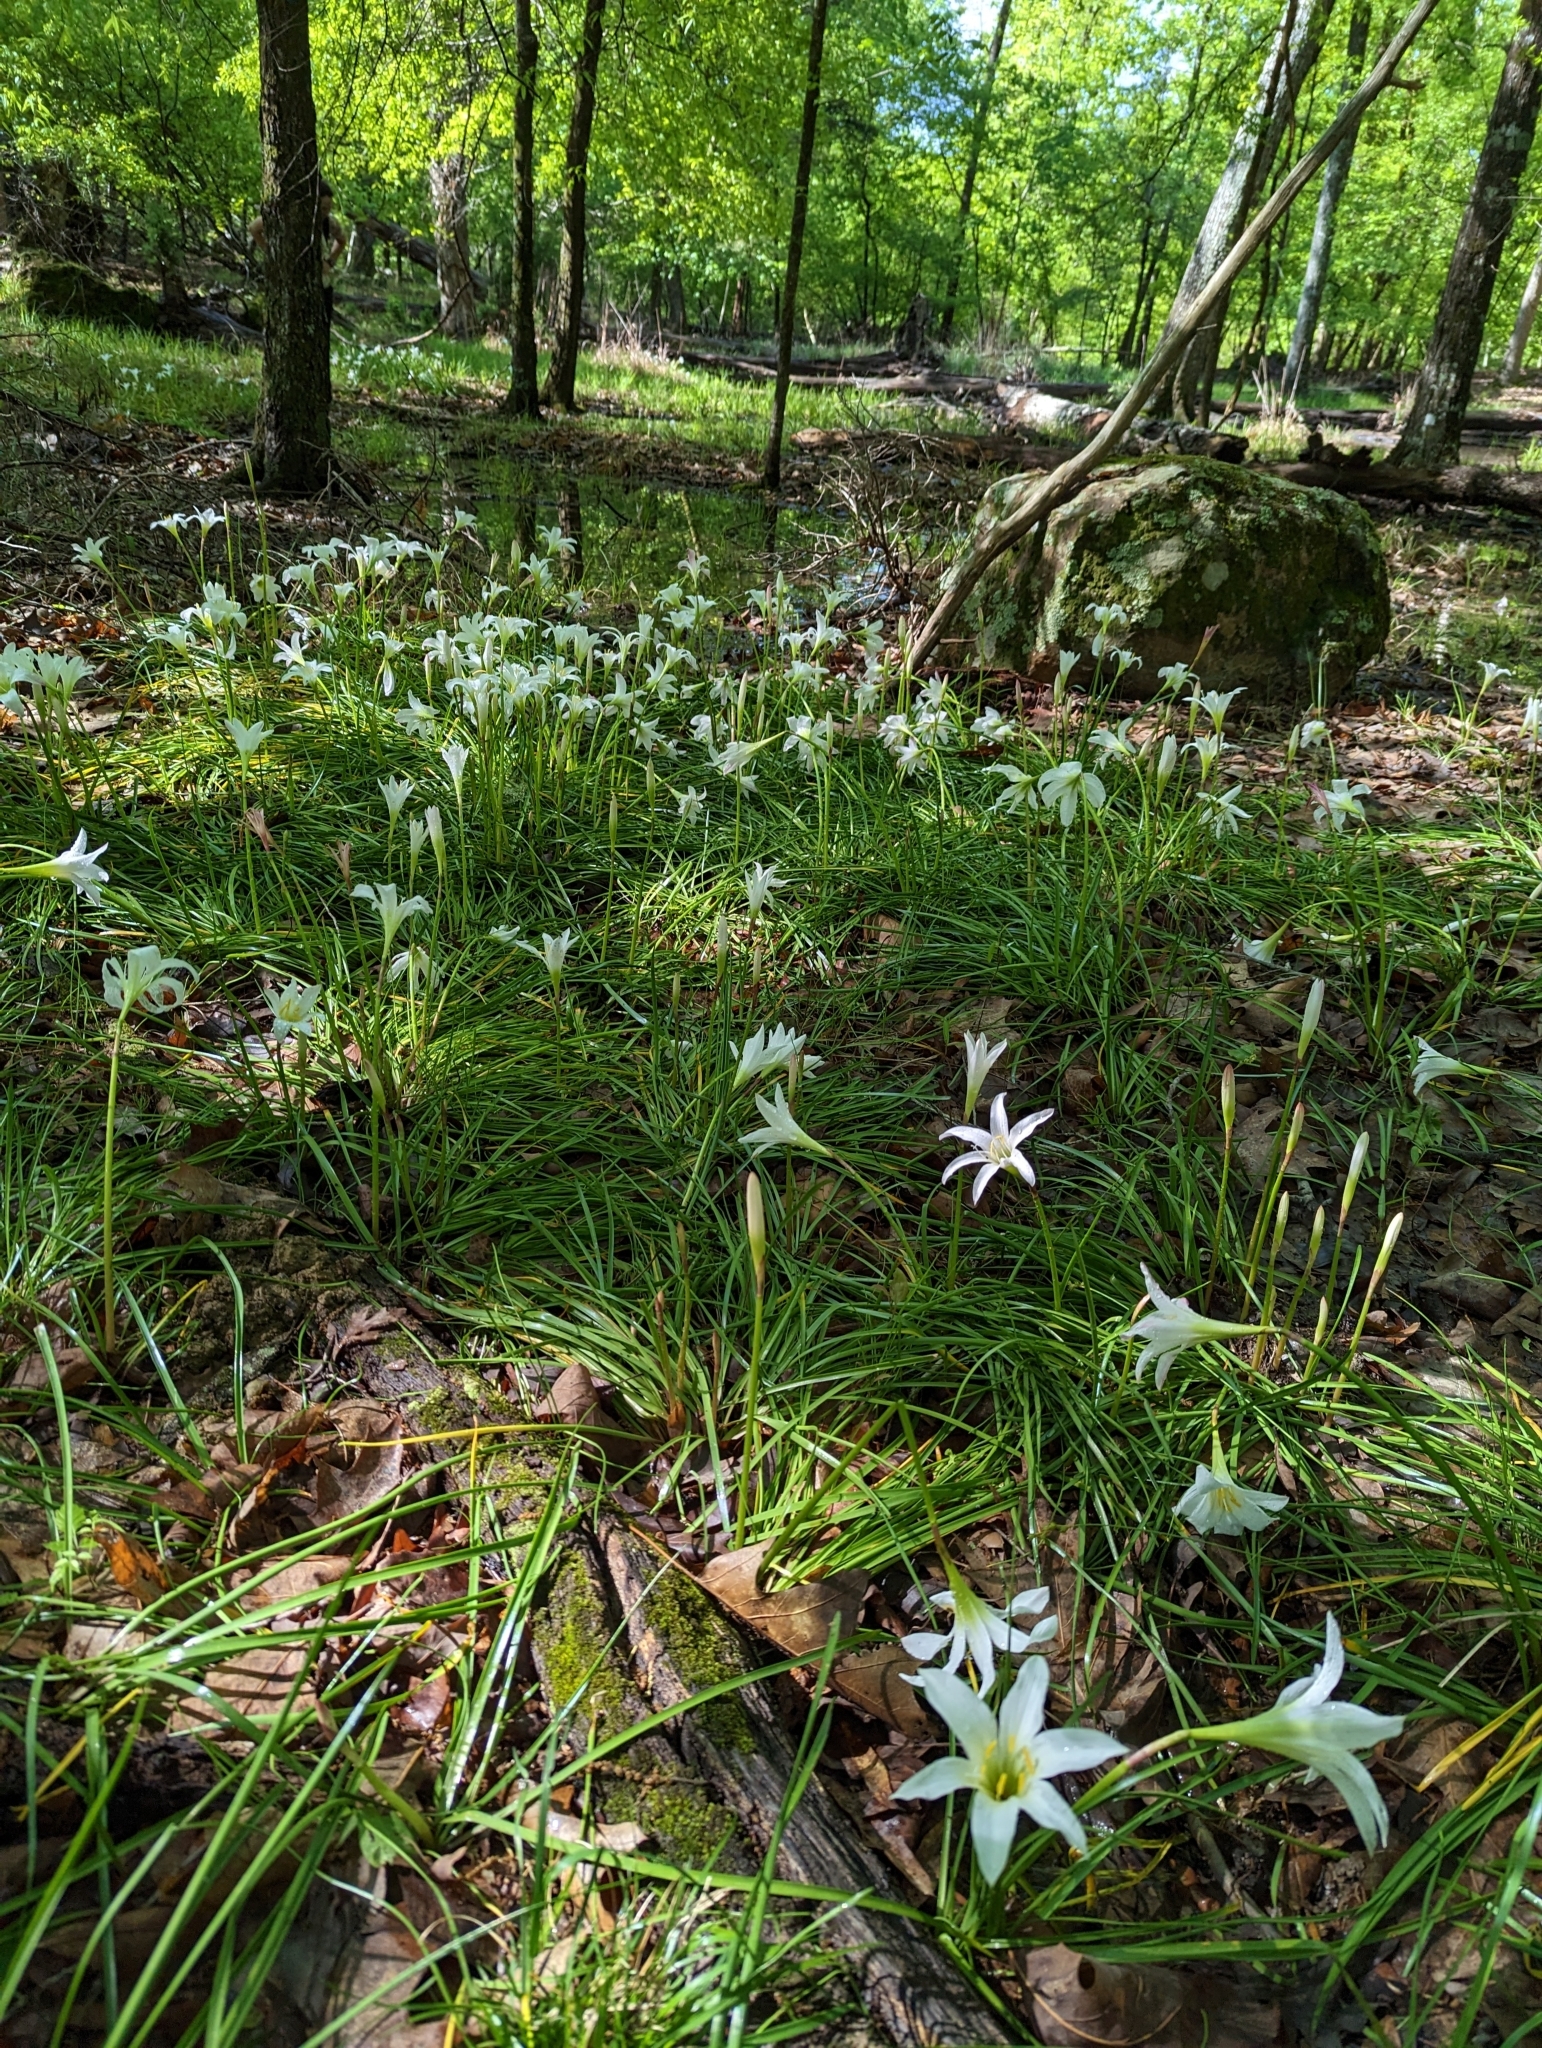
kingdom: Plantae
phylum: Tracheophyta
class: Liliopsida
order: Asparagales
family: Amaryllidaceae
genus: Zephyranthes
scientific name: Zephyranthes atamasco
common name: Atamasco lily
